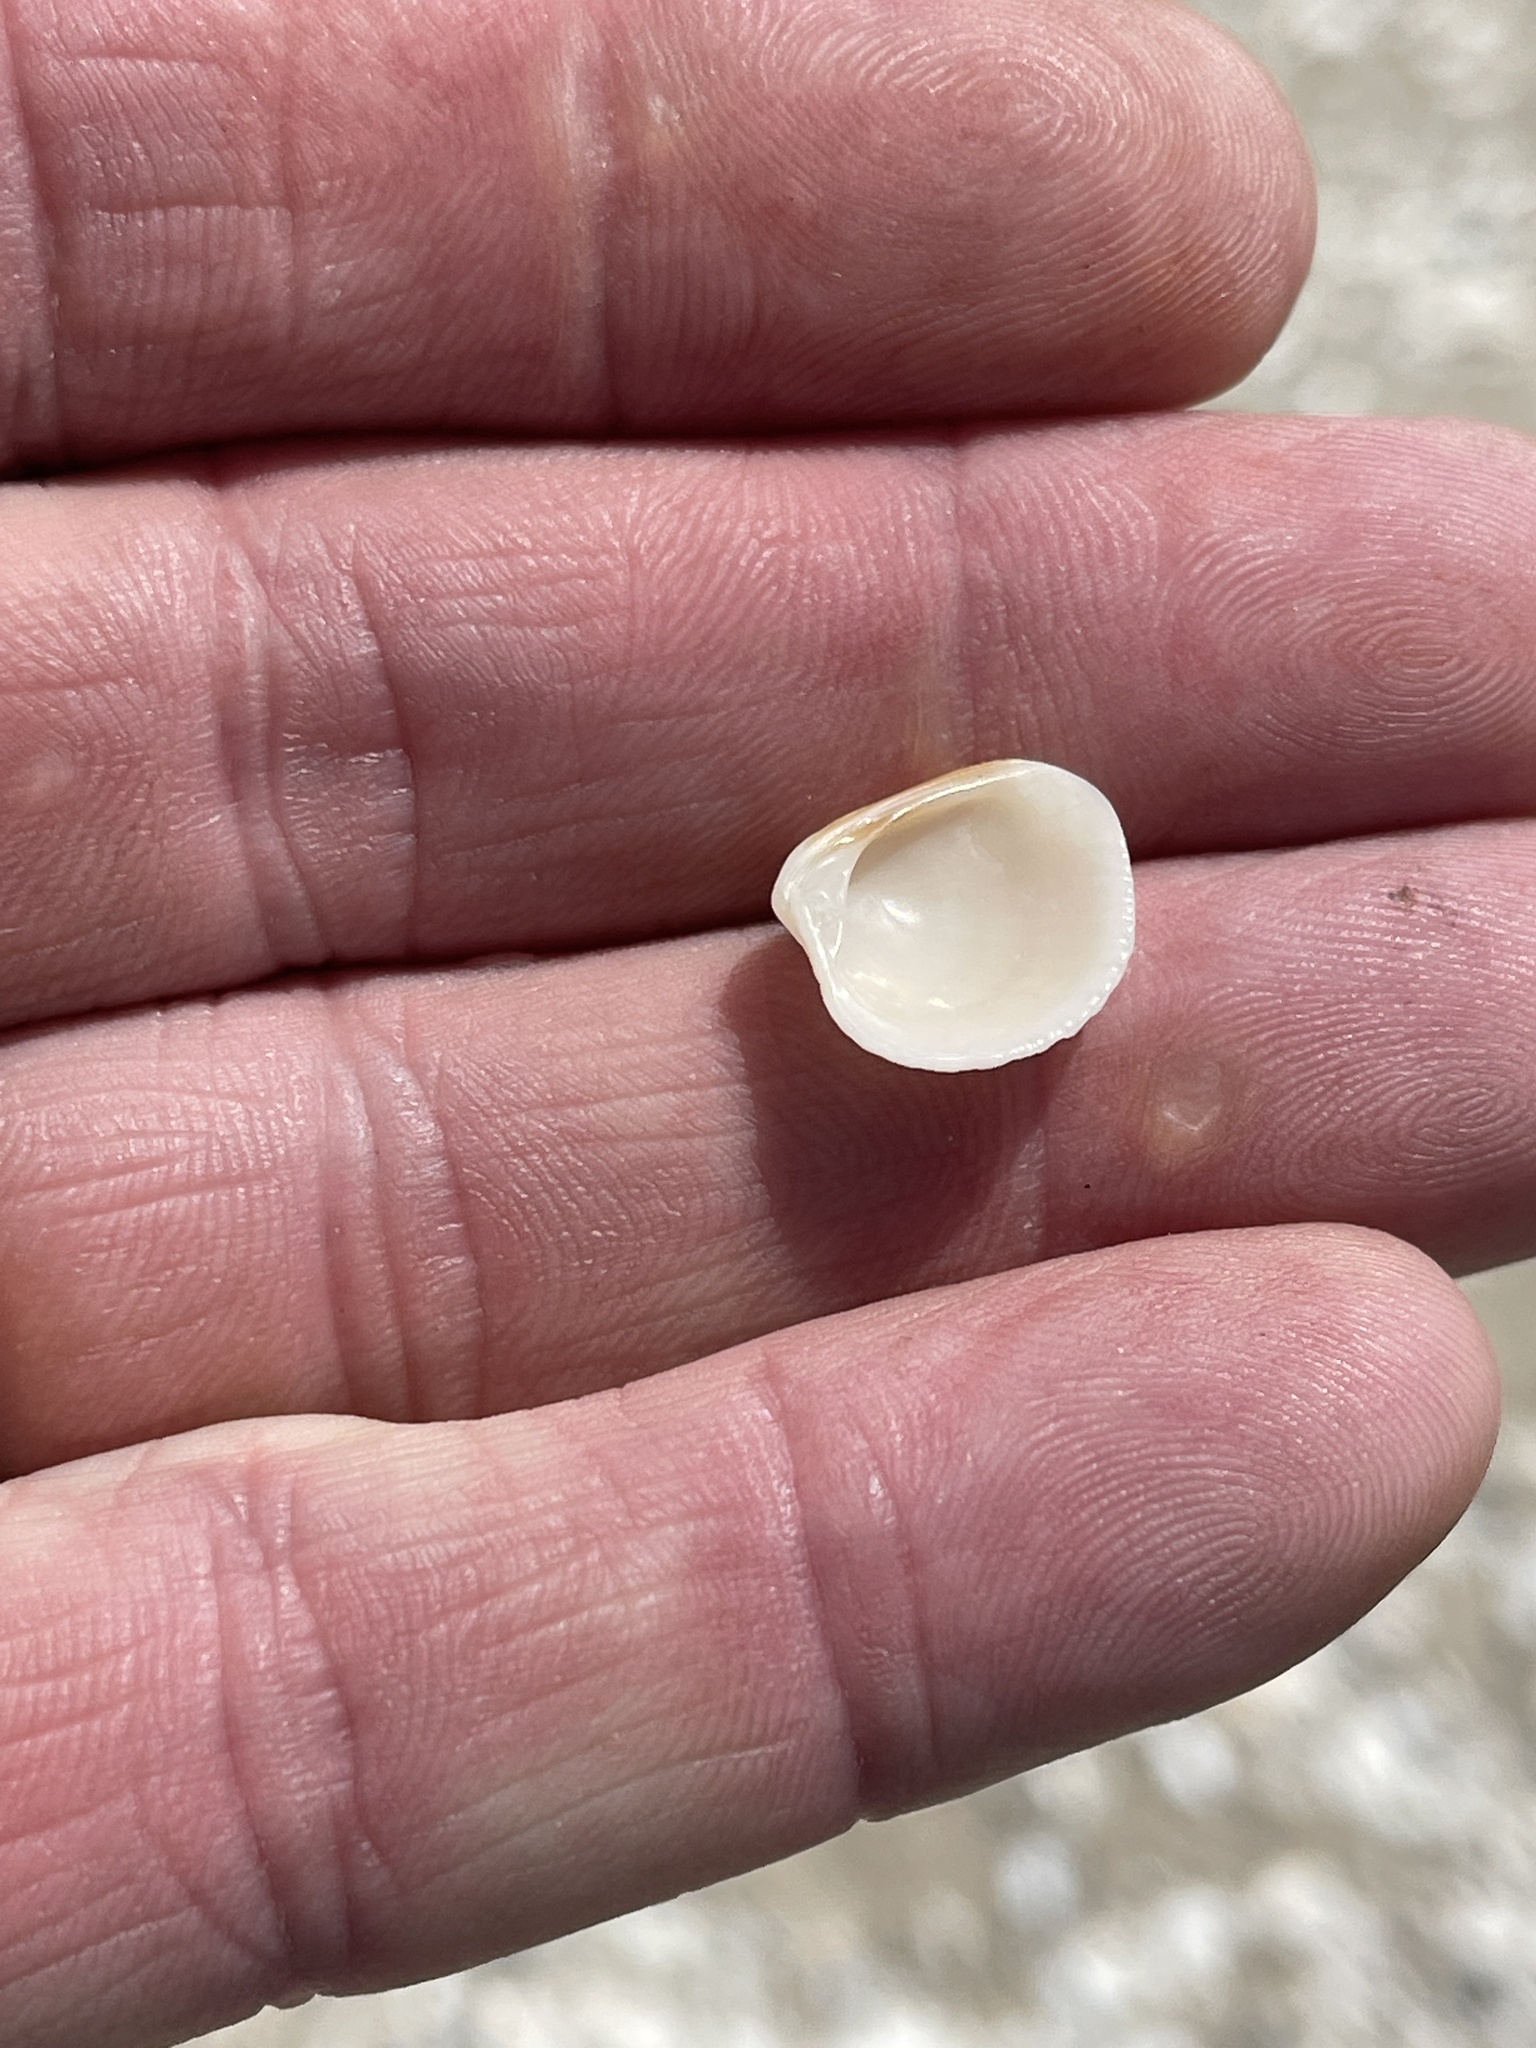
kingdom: Animalia
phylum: Mollusca
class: Bivalvia
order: Venerida
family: Veneridae
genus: Chione
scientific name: Chione elevata
